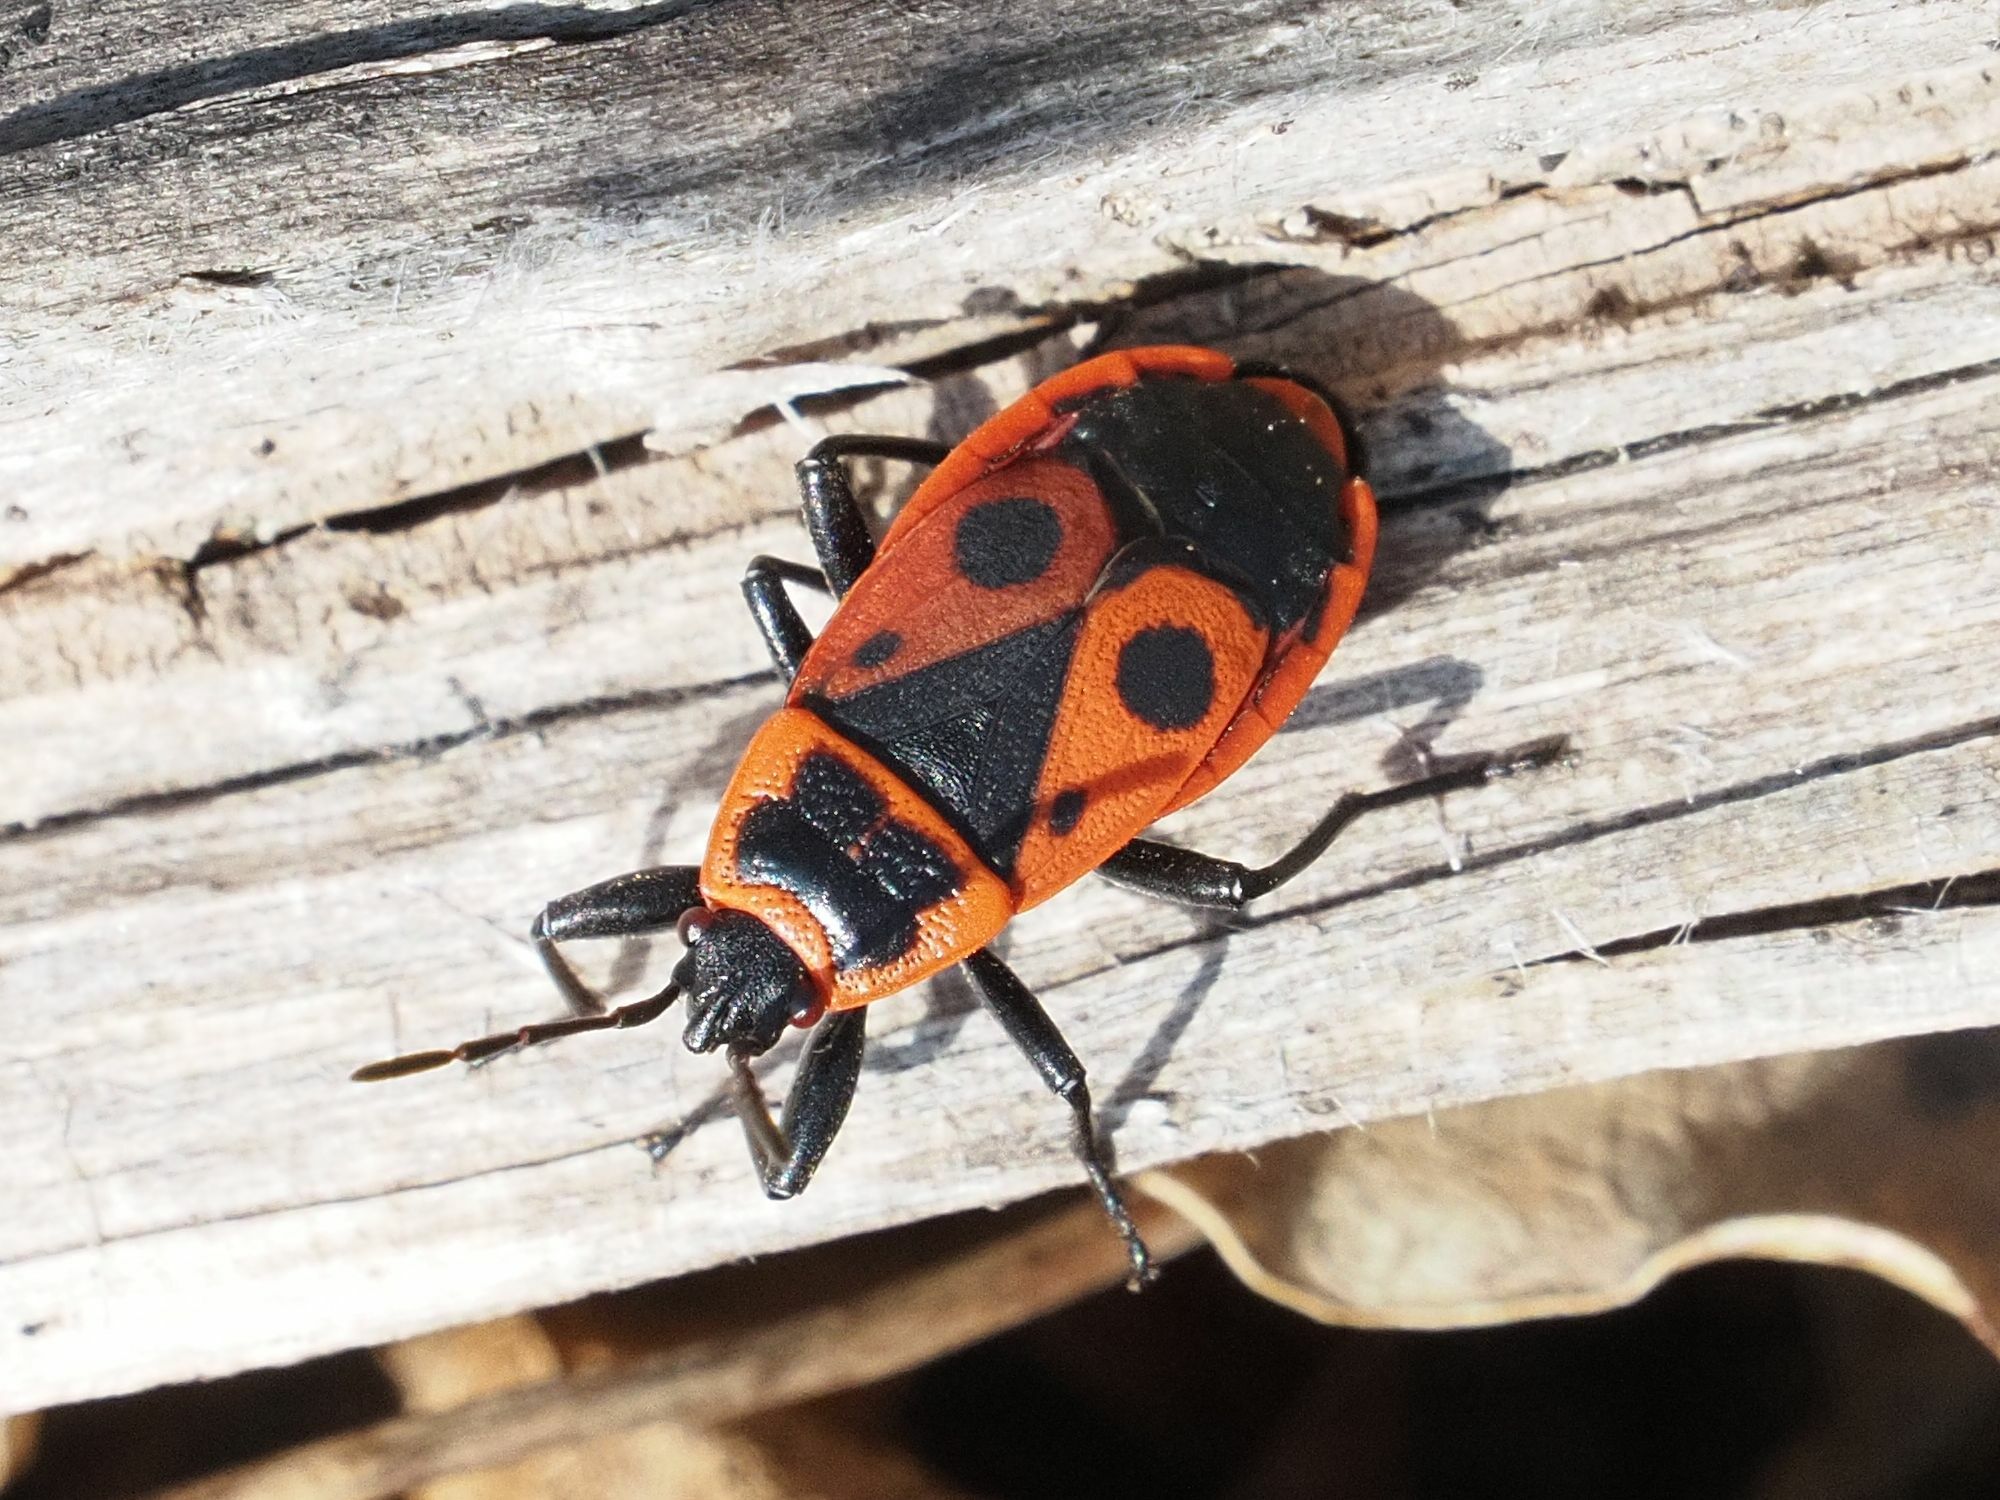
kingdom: Animalia
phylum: Arthropoda
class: Insecta
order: Hemiptera
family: Pyrrhocoridae
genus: Pyrrhocoris
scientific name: Pyrrhocoris apterus
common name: Firebug
